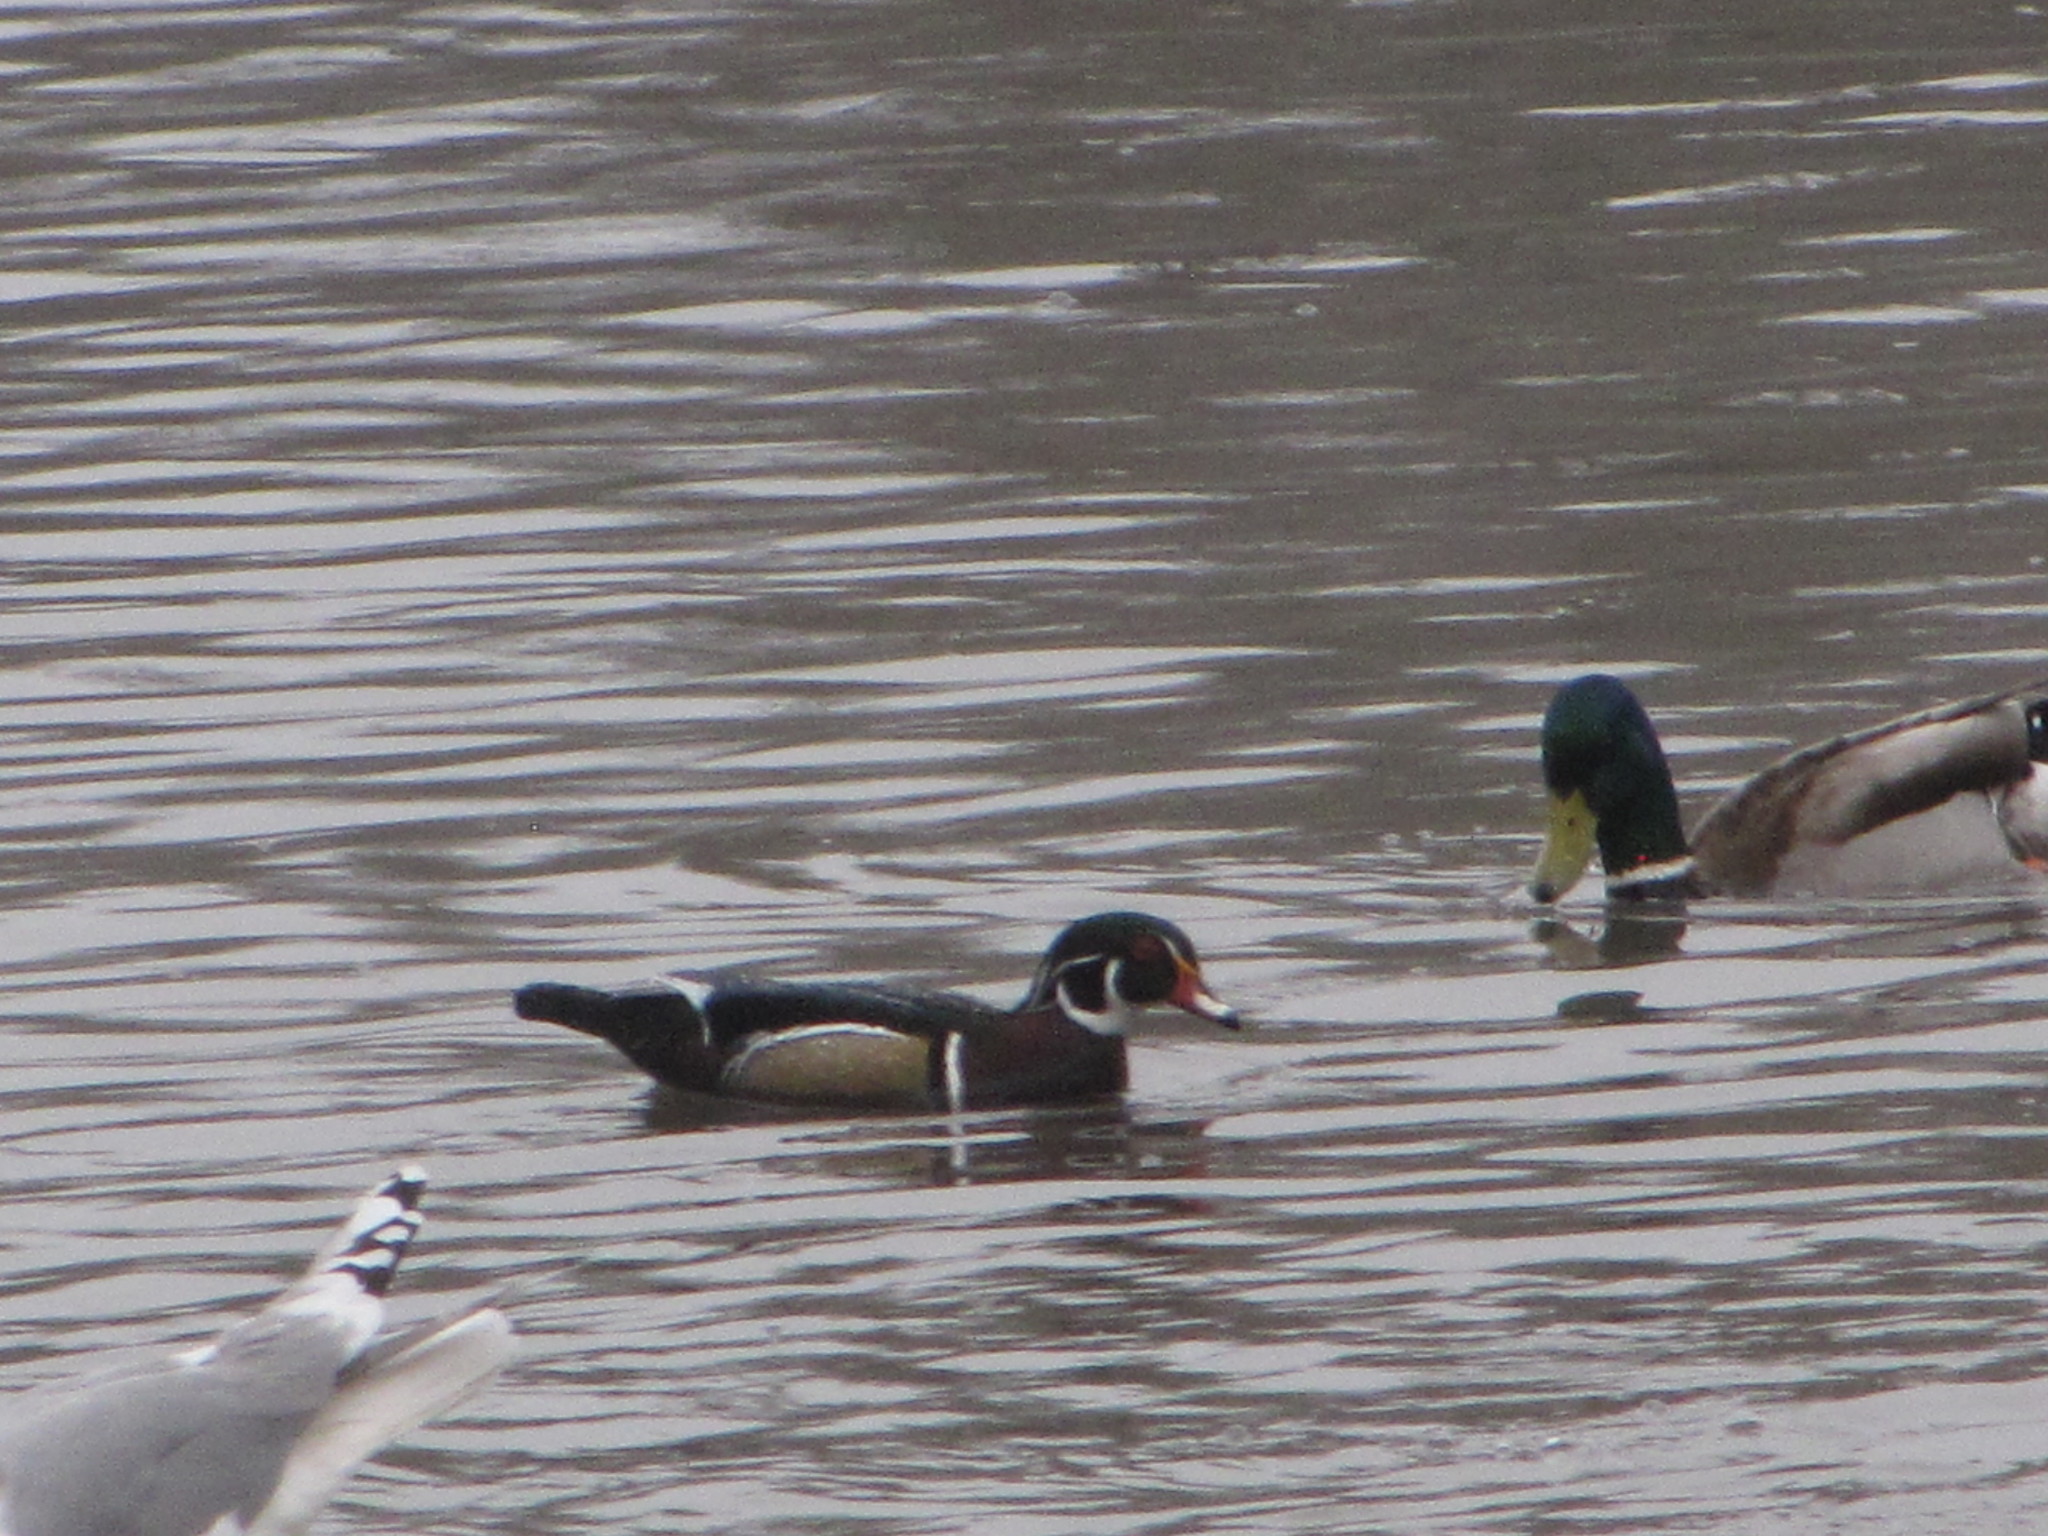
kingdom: Animalia
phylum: Chordata
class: Aves
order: Anseriformes
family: Anatidae
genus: Anas
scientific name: Anas platyrhynchos
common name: Mallard
